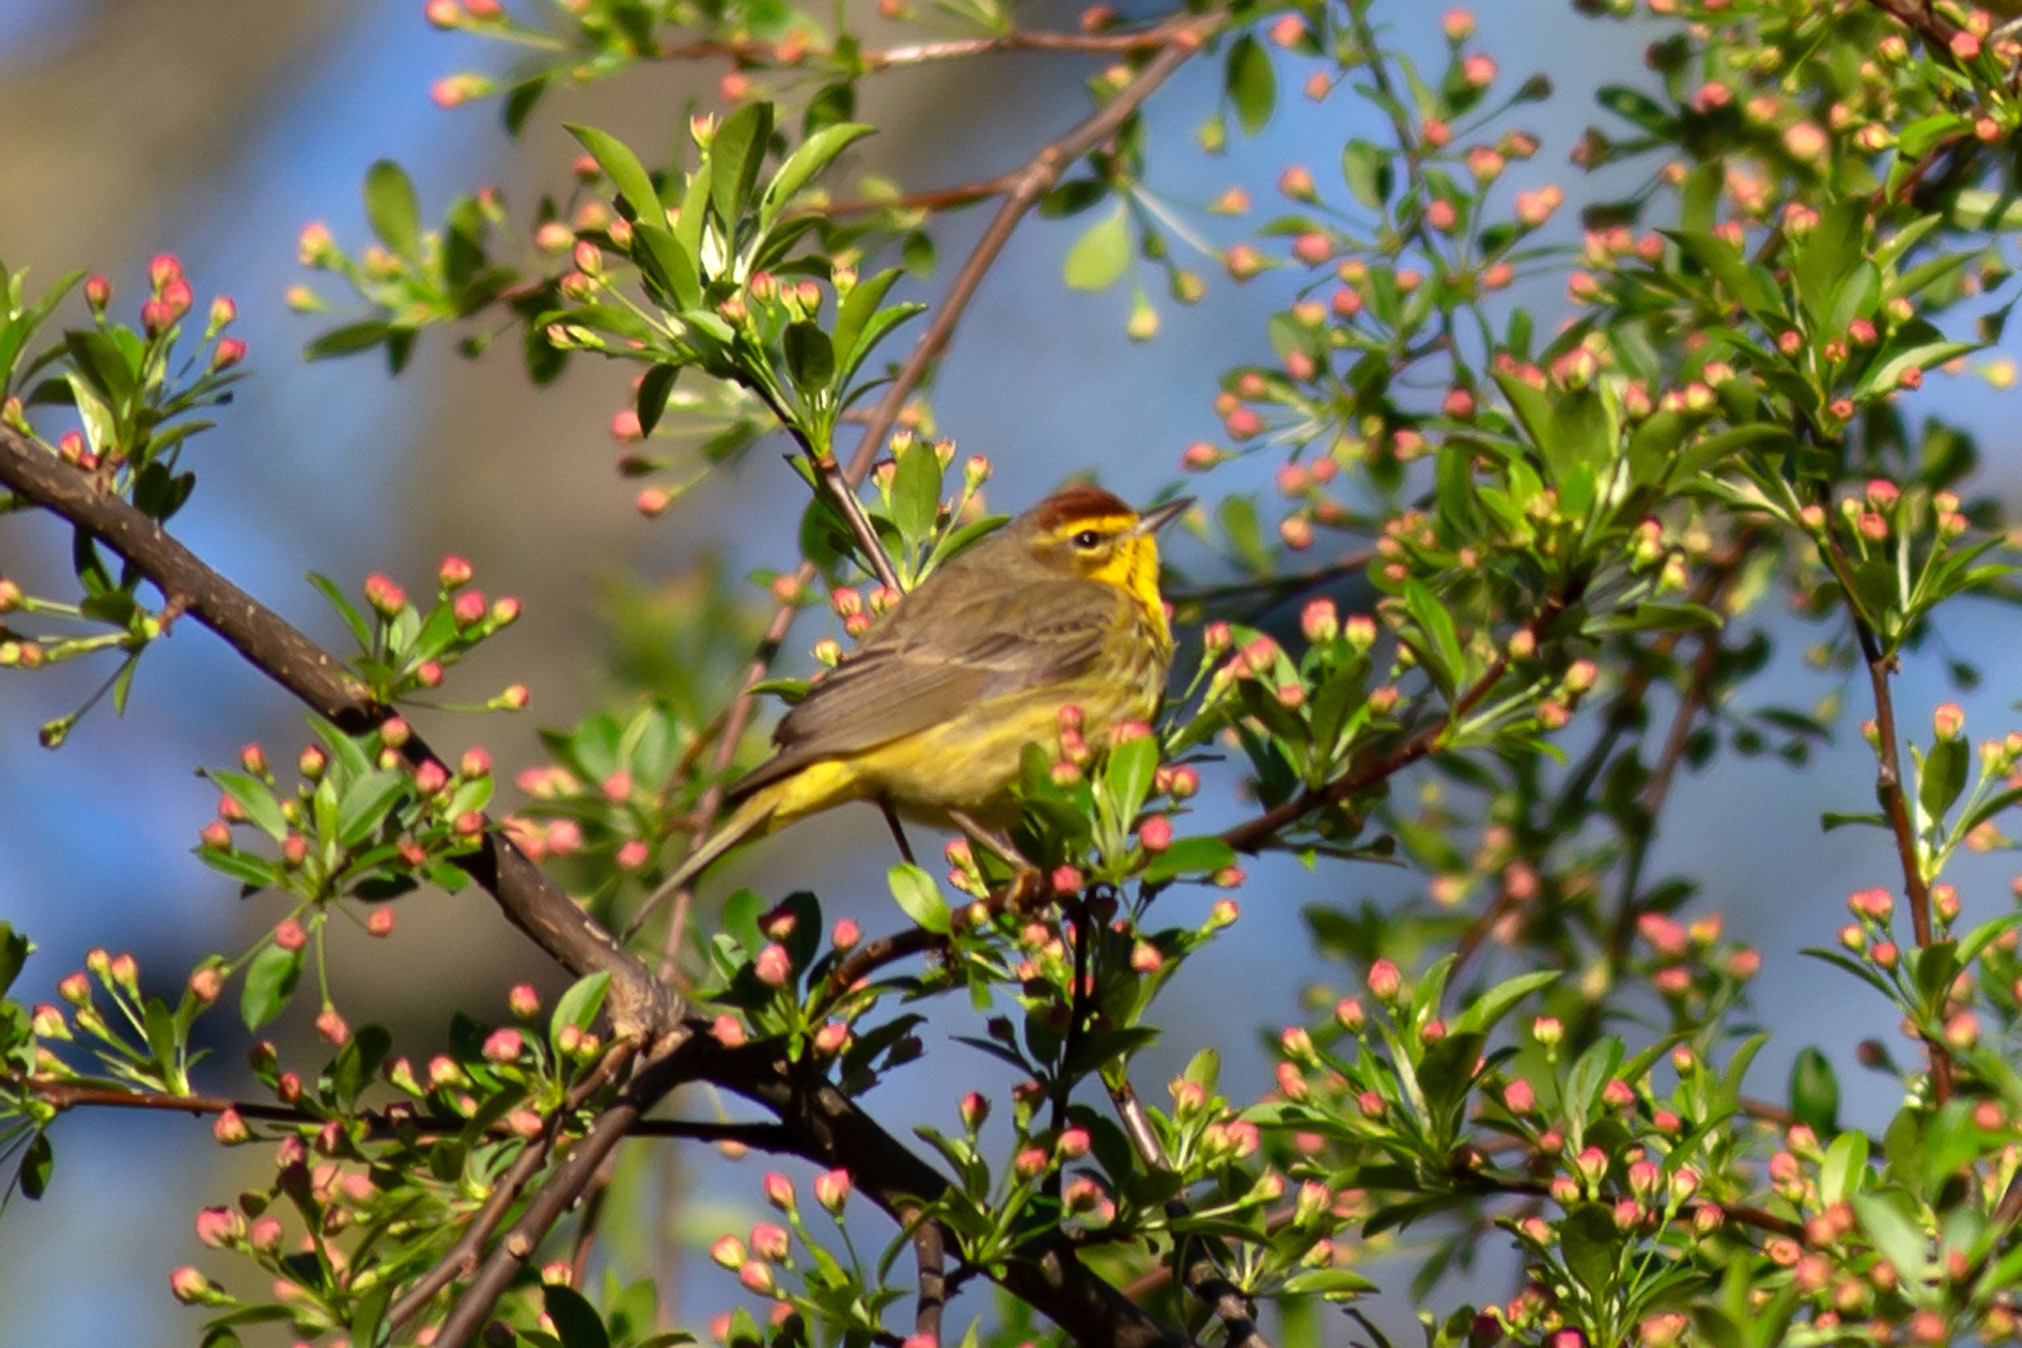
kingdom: Animalia
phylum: Chordata
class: Aves
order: Passeriformes
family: Parulidae
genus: Setophaga
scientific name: Setophaga palmarum
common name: Palm warbler
